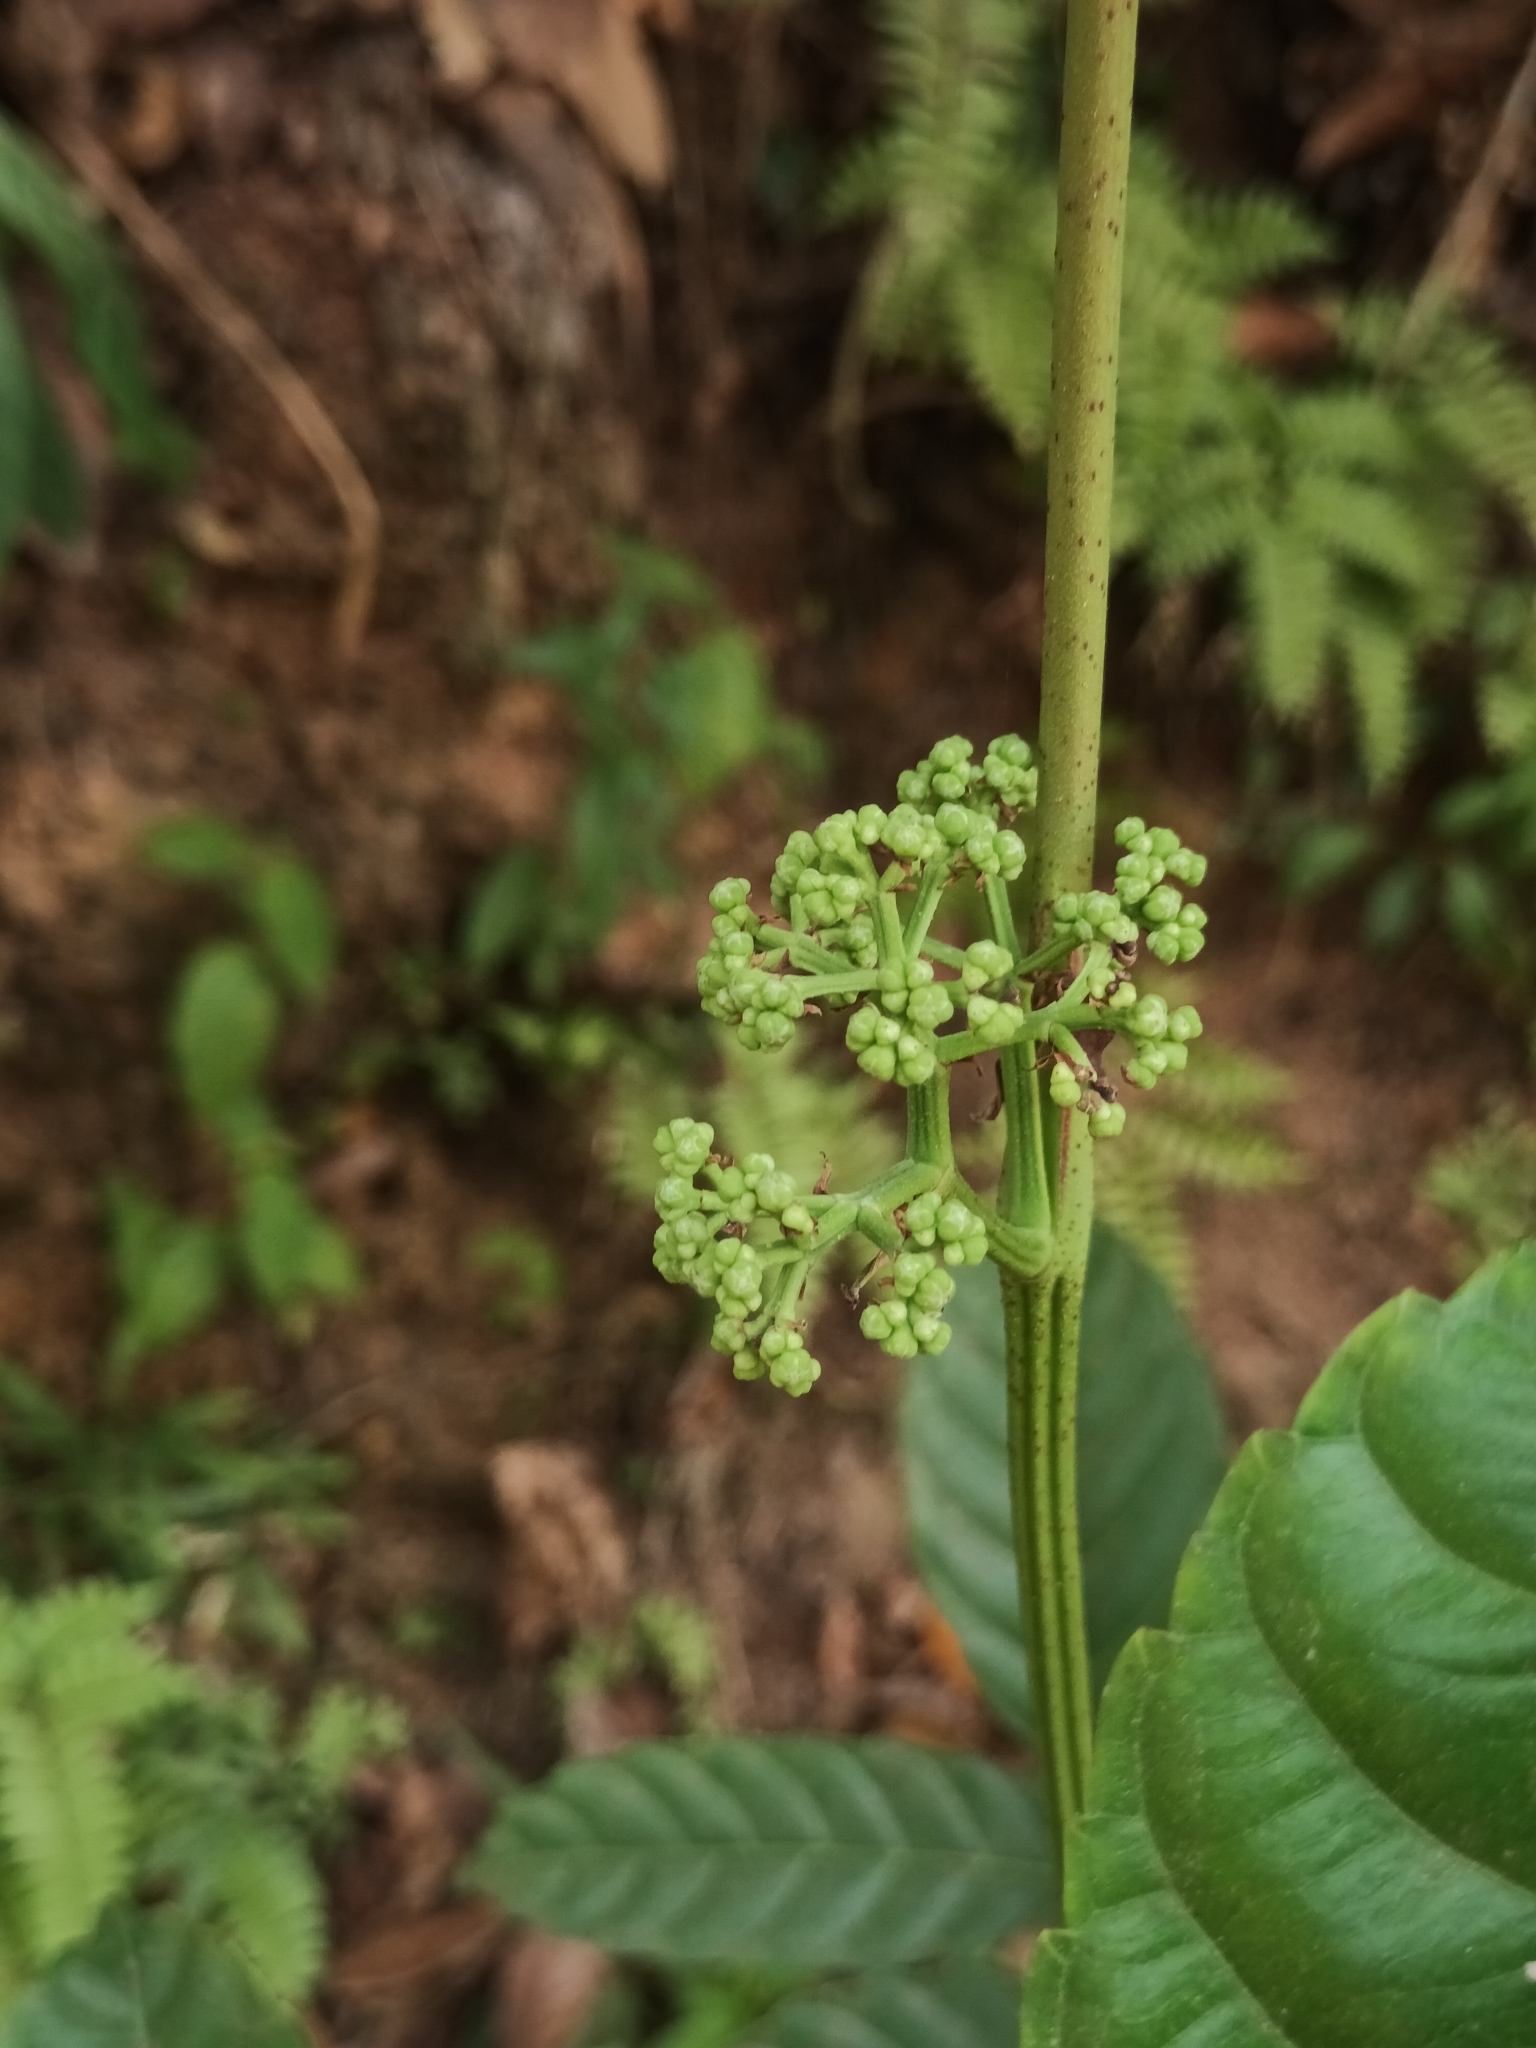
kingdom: Plantae
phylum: Tracheophyta
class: Magnoliopsida
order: Vitales
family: Vitaceae
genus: Leea
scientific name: Leea indica
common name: Bandicoot-berry
